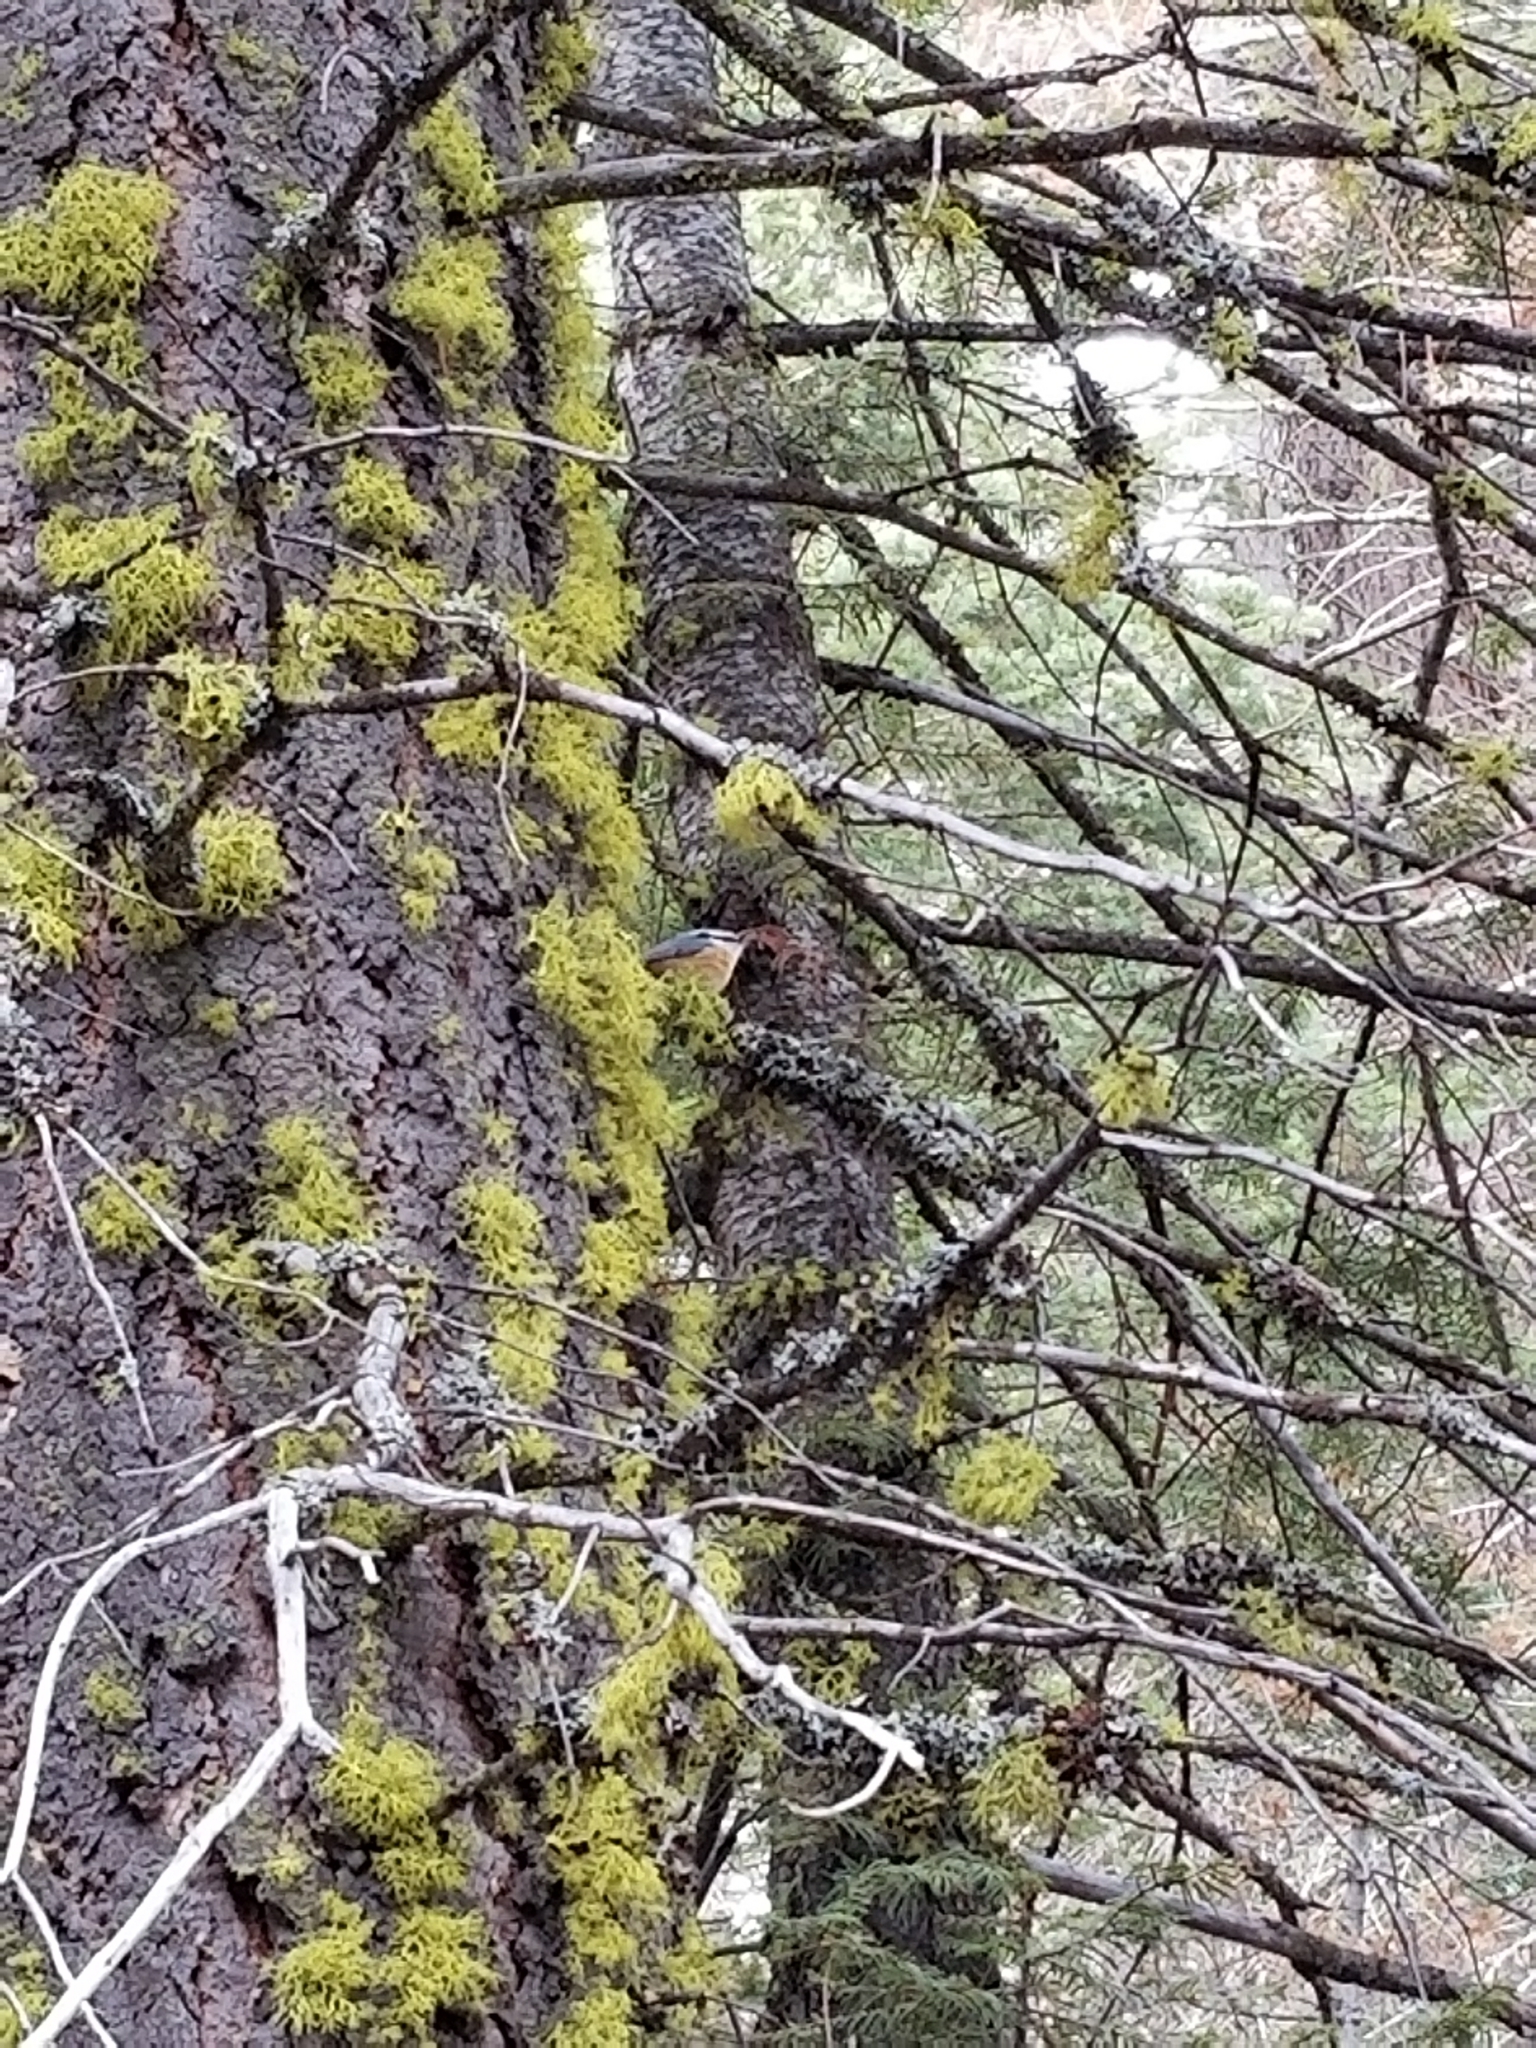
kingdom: Animalia
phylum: Chordata
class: Aves
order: Passeriformes
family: Sittidae
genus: Sitta
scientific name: Sitta canadensis
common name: Red-breasted nuthatch
